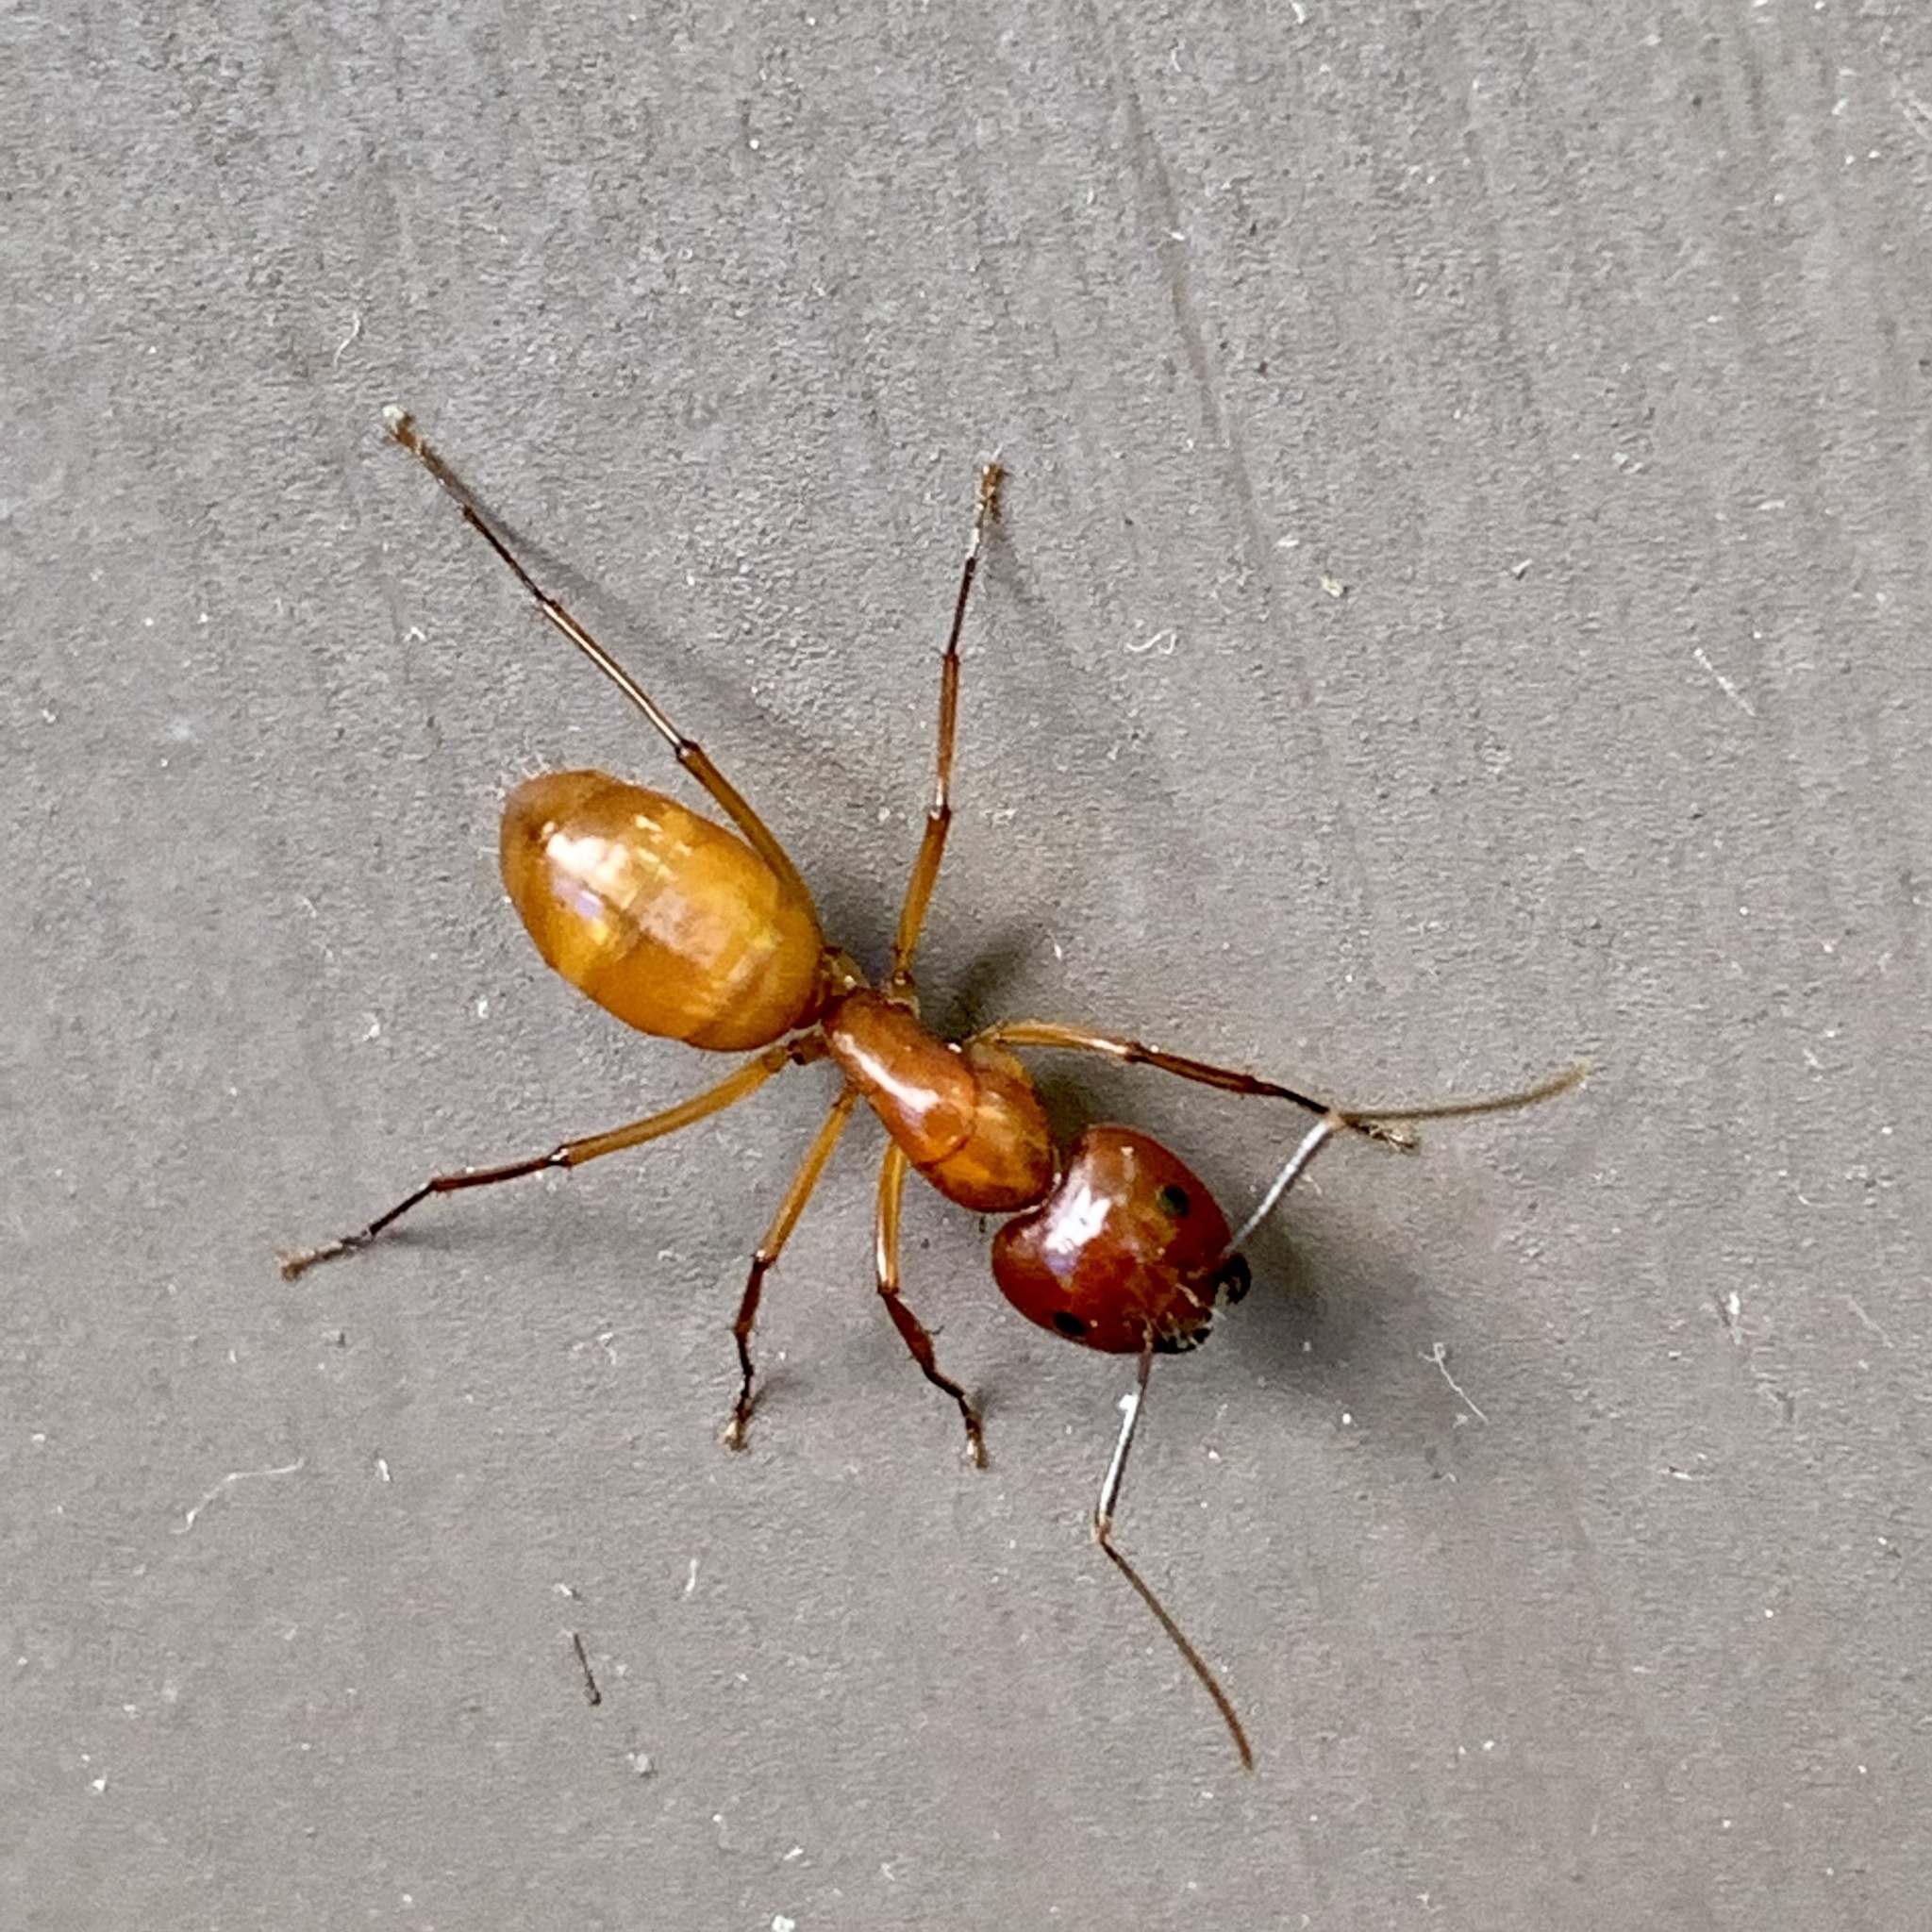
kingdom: Animalia
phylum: Arthropoda
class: Insecta
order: Hymenoptera
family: Formicidae
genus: Camponotus
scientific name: Camponotus castaneus
